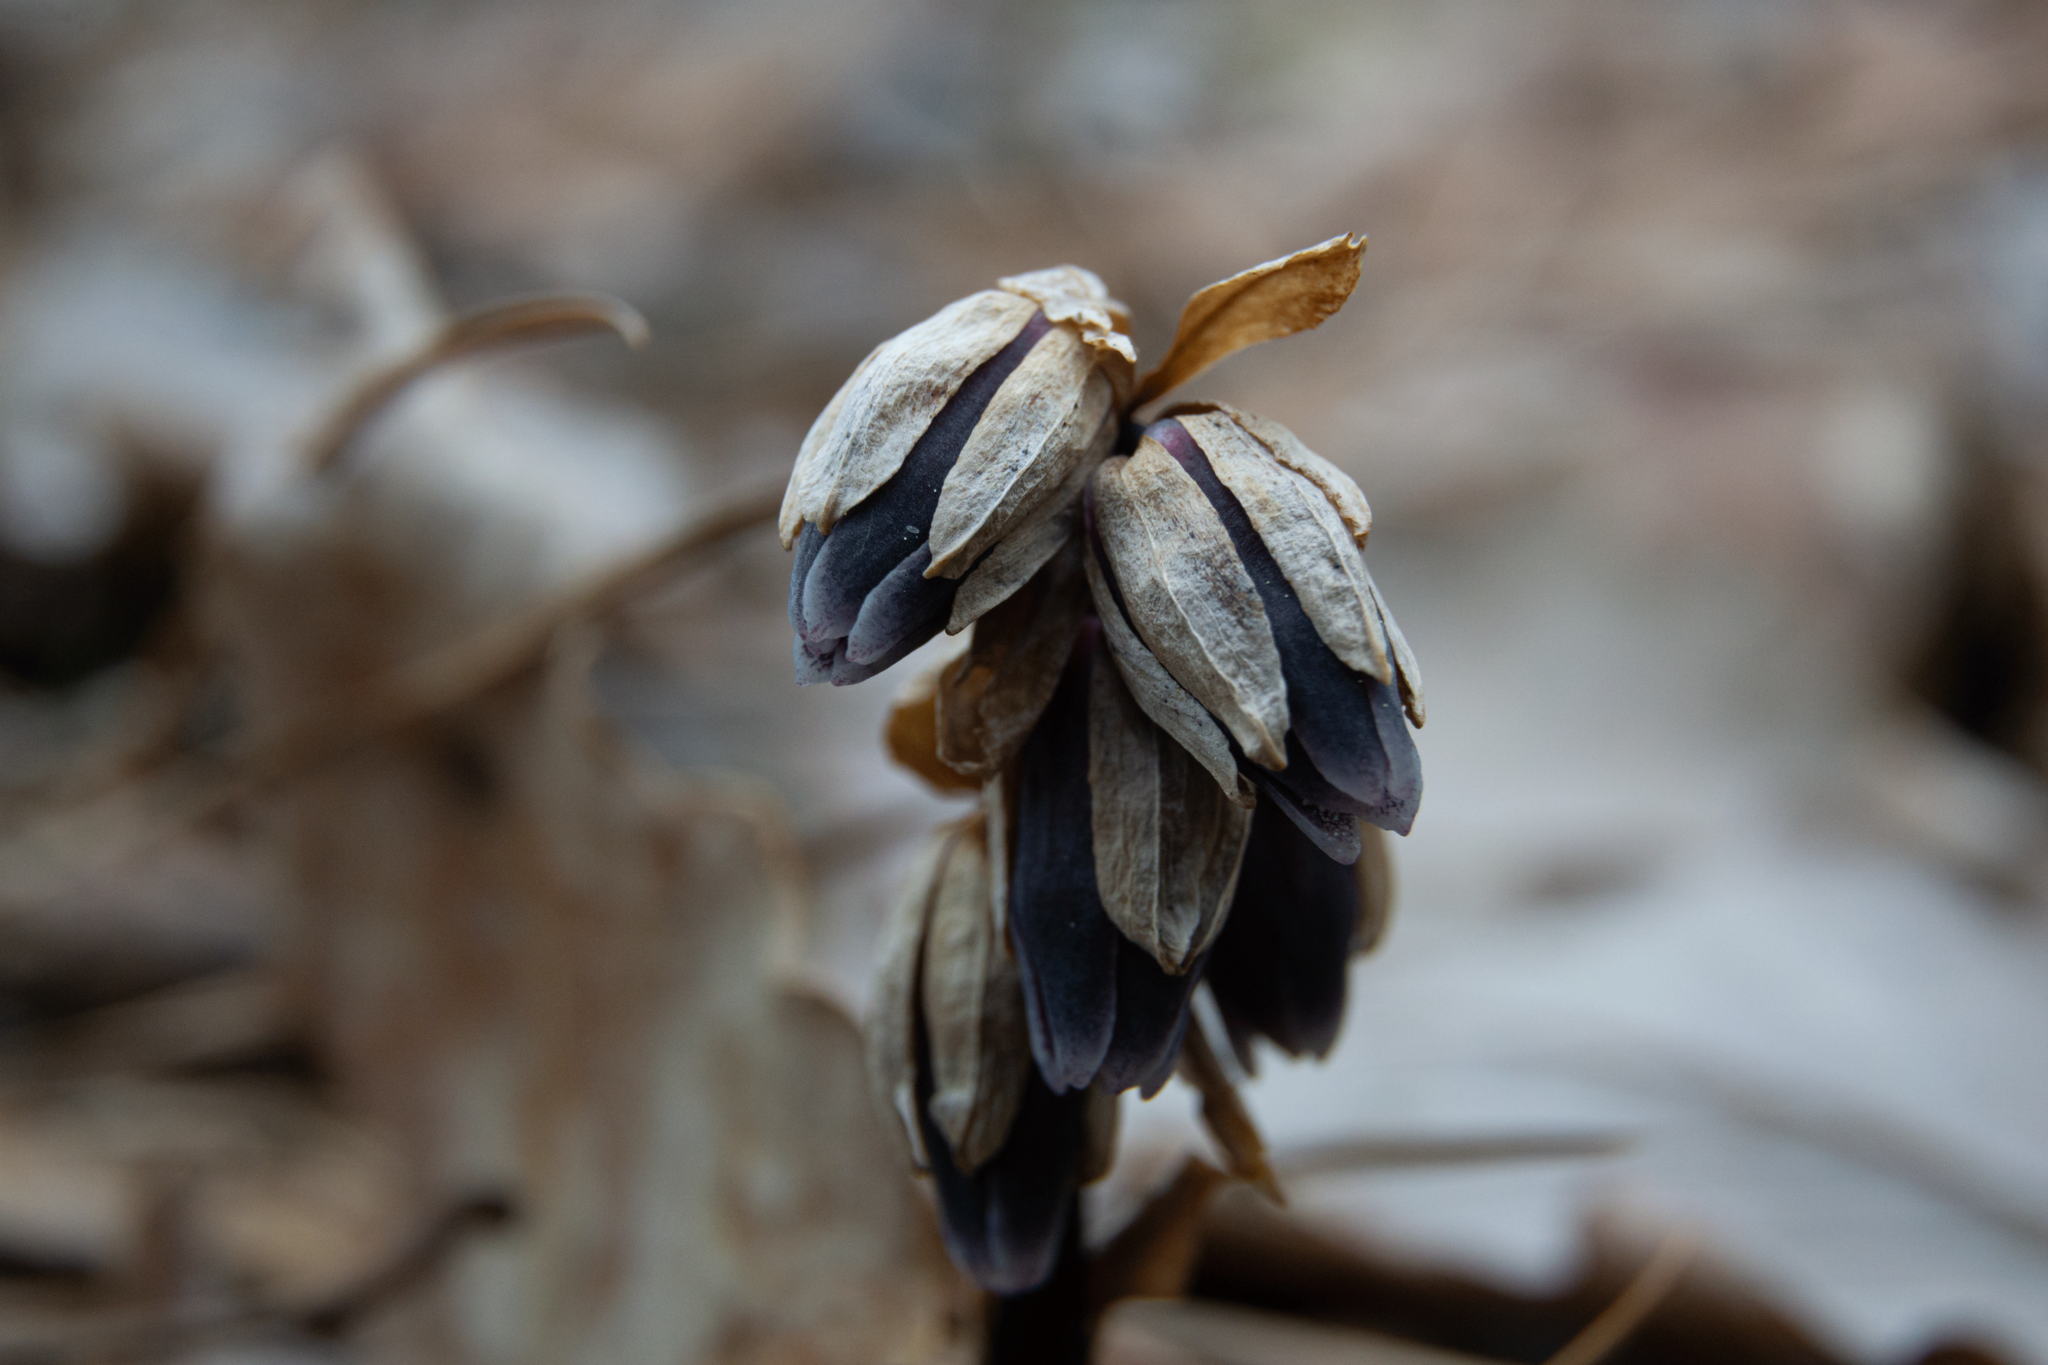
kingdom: Plantae
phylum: Tracheophyta
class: Magnoliopsida
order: Ericales
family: Ericaceae
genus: Monotropsis
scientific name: Monotropsis odorata
